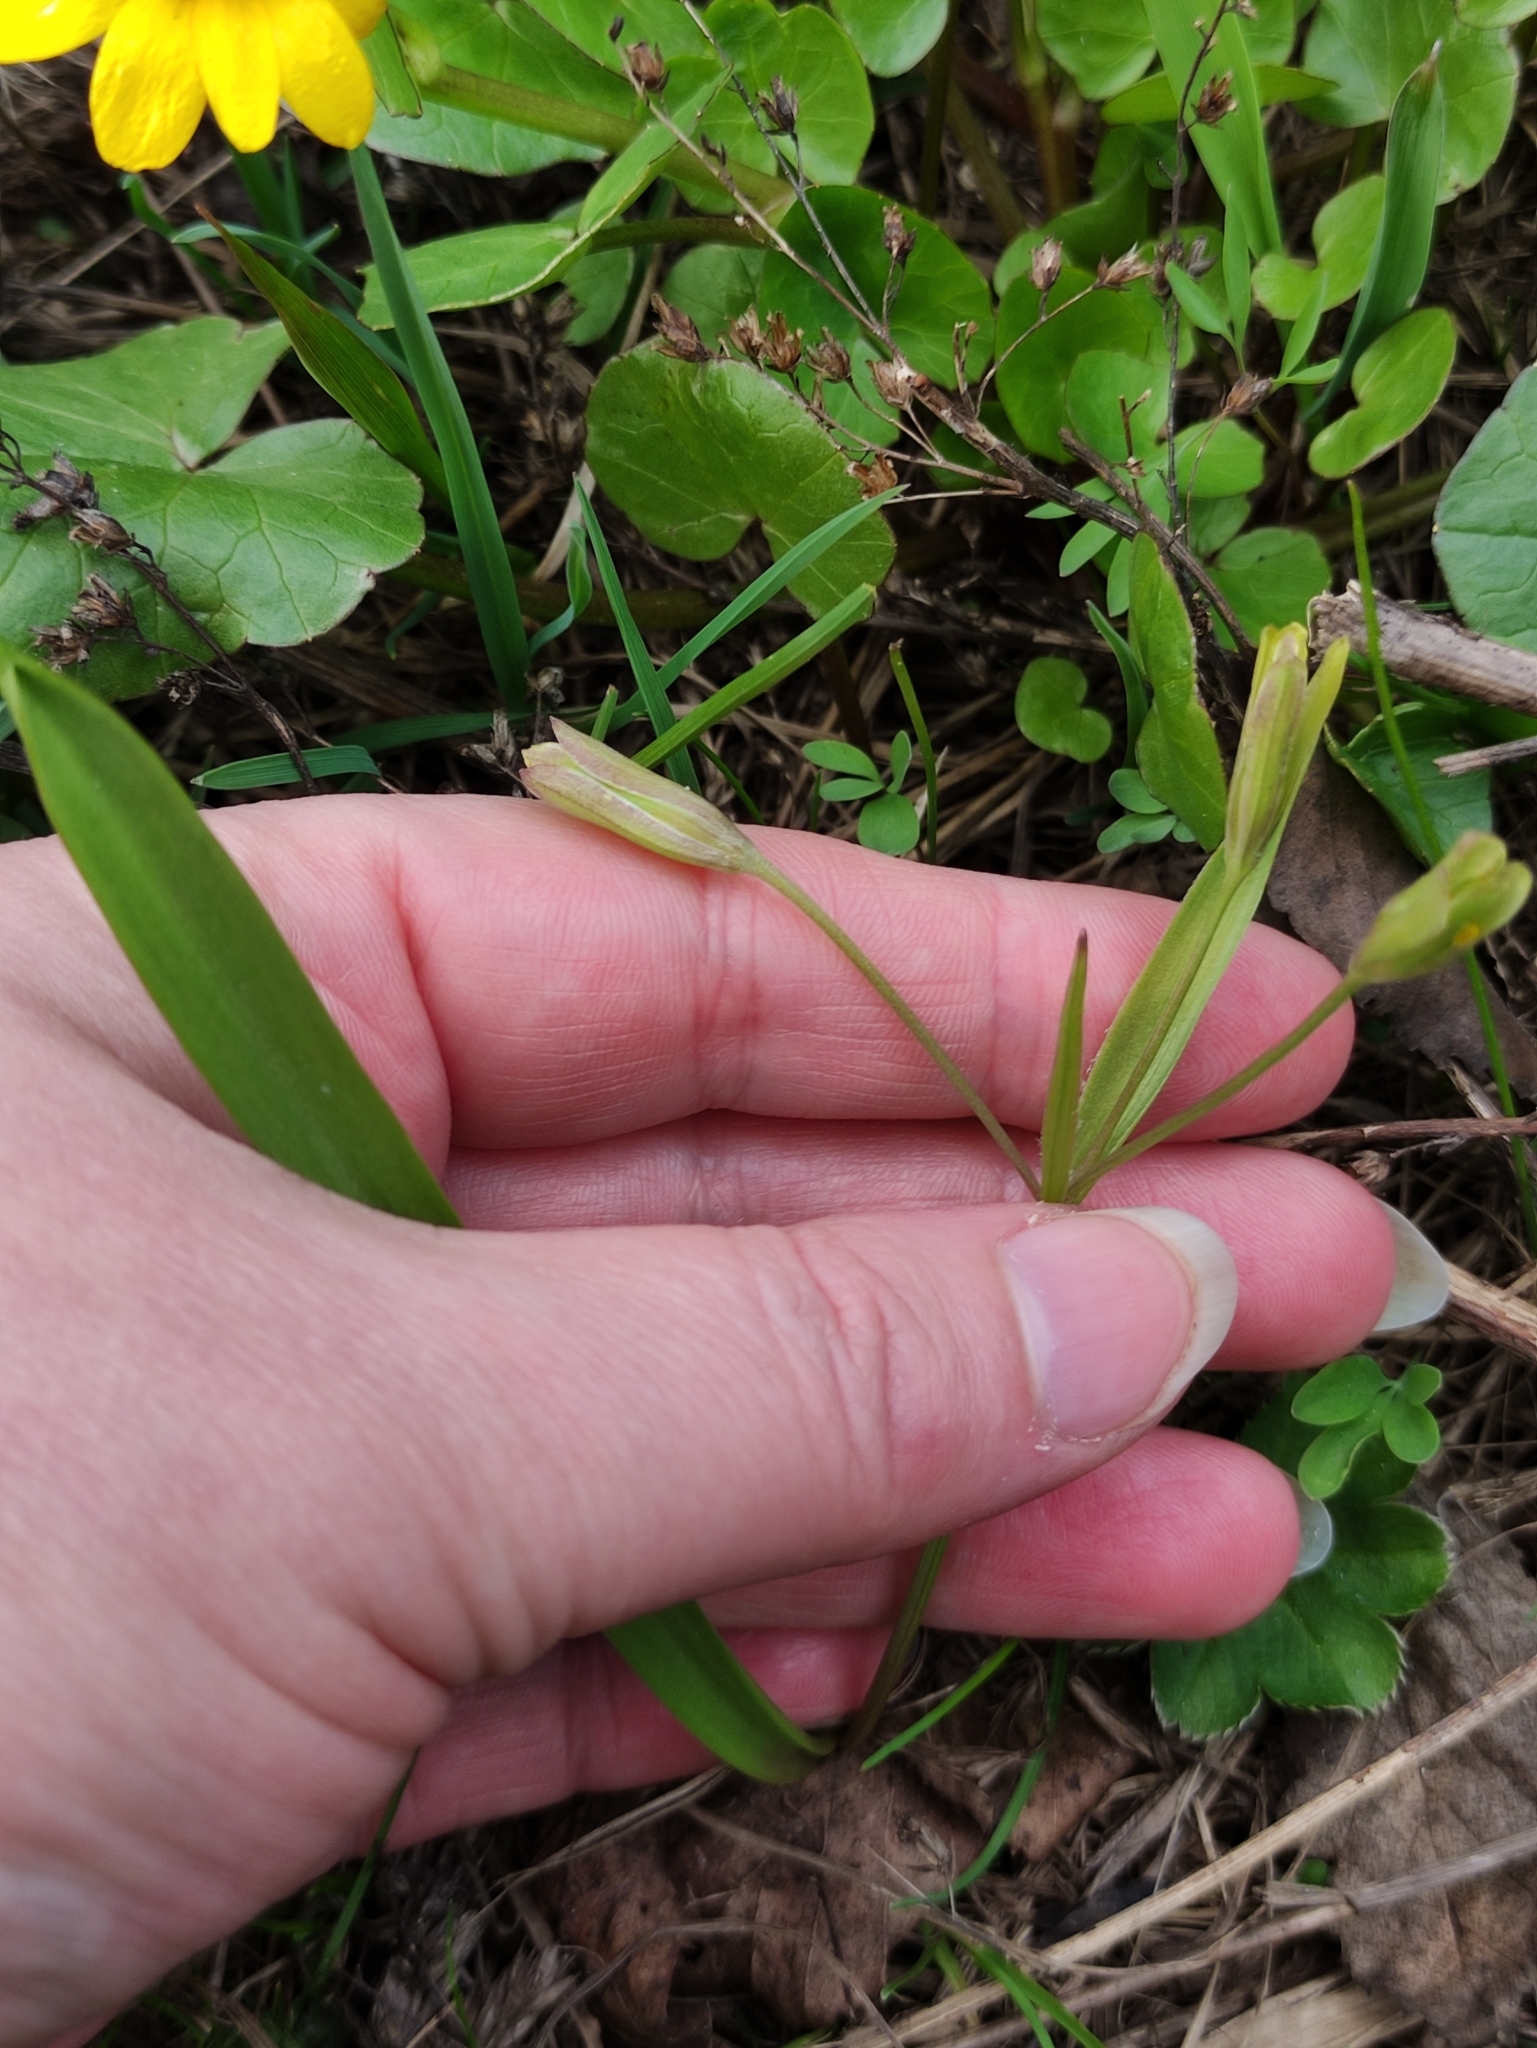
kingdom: Plantae
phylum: Tracheophyta
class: Liliopsida
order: Liliales
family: Liliaceae
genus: Gagea
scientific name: Gagea lutea
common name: Yellow star-of-bethlehem
